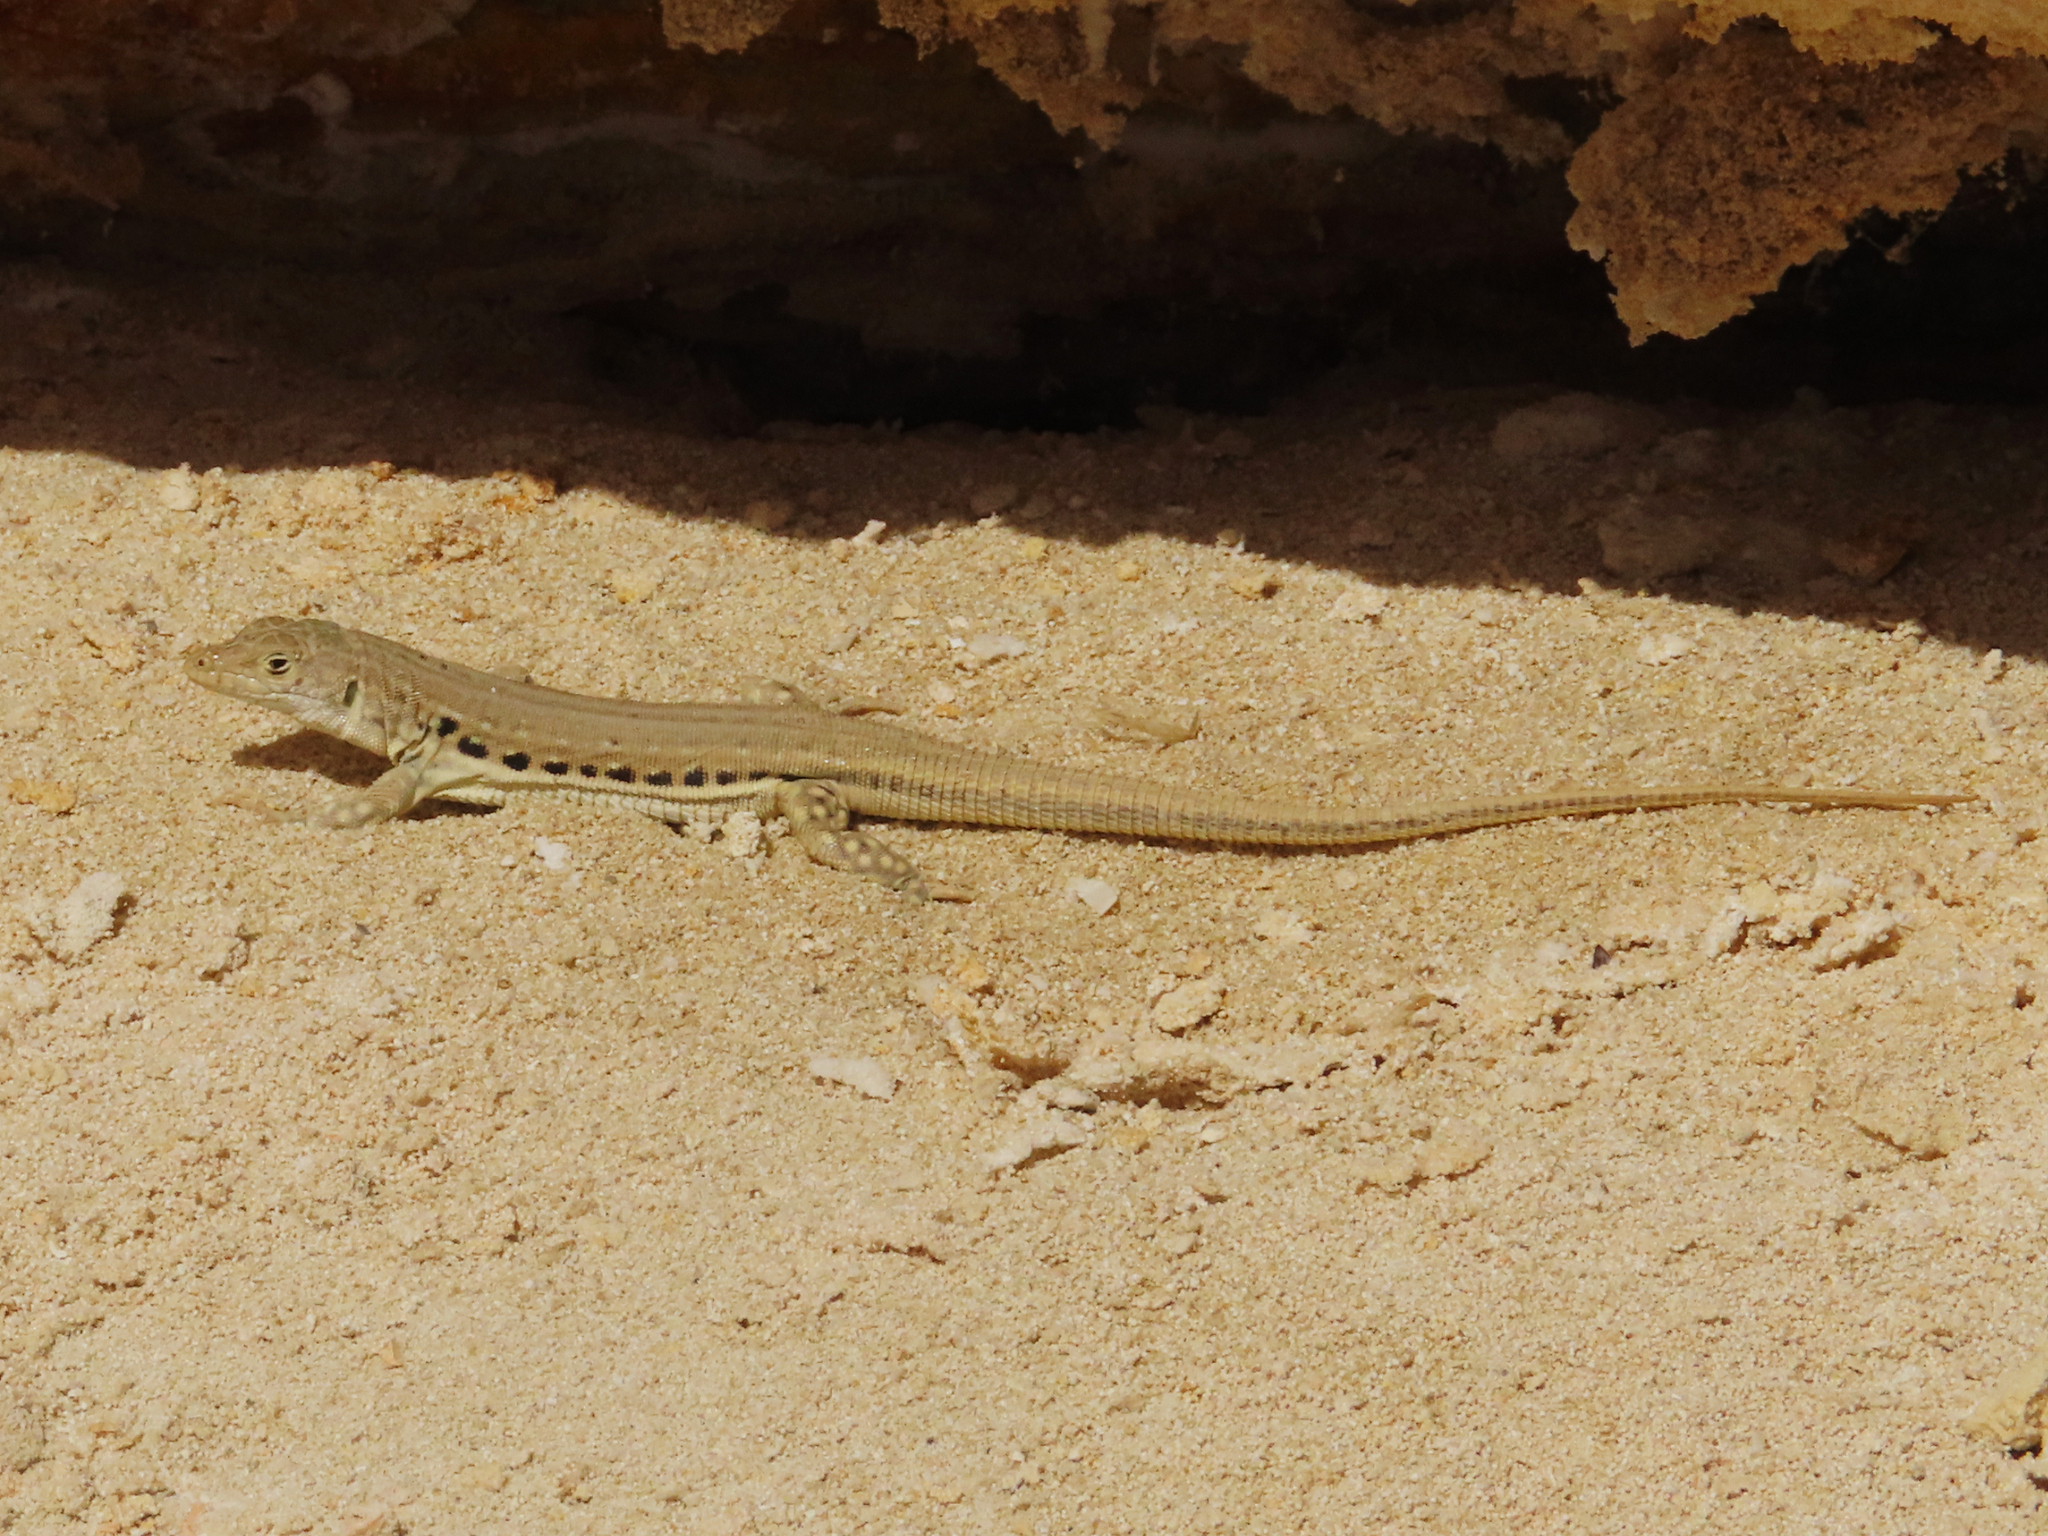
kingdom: Animalia
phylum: Chordata
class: Squamata
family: Lacertidae
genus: Eremias
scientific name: Eremias velox
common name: Central asian racerunner
